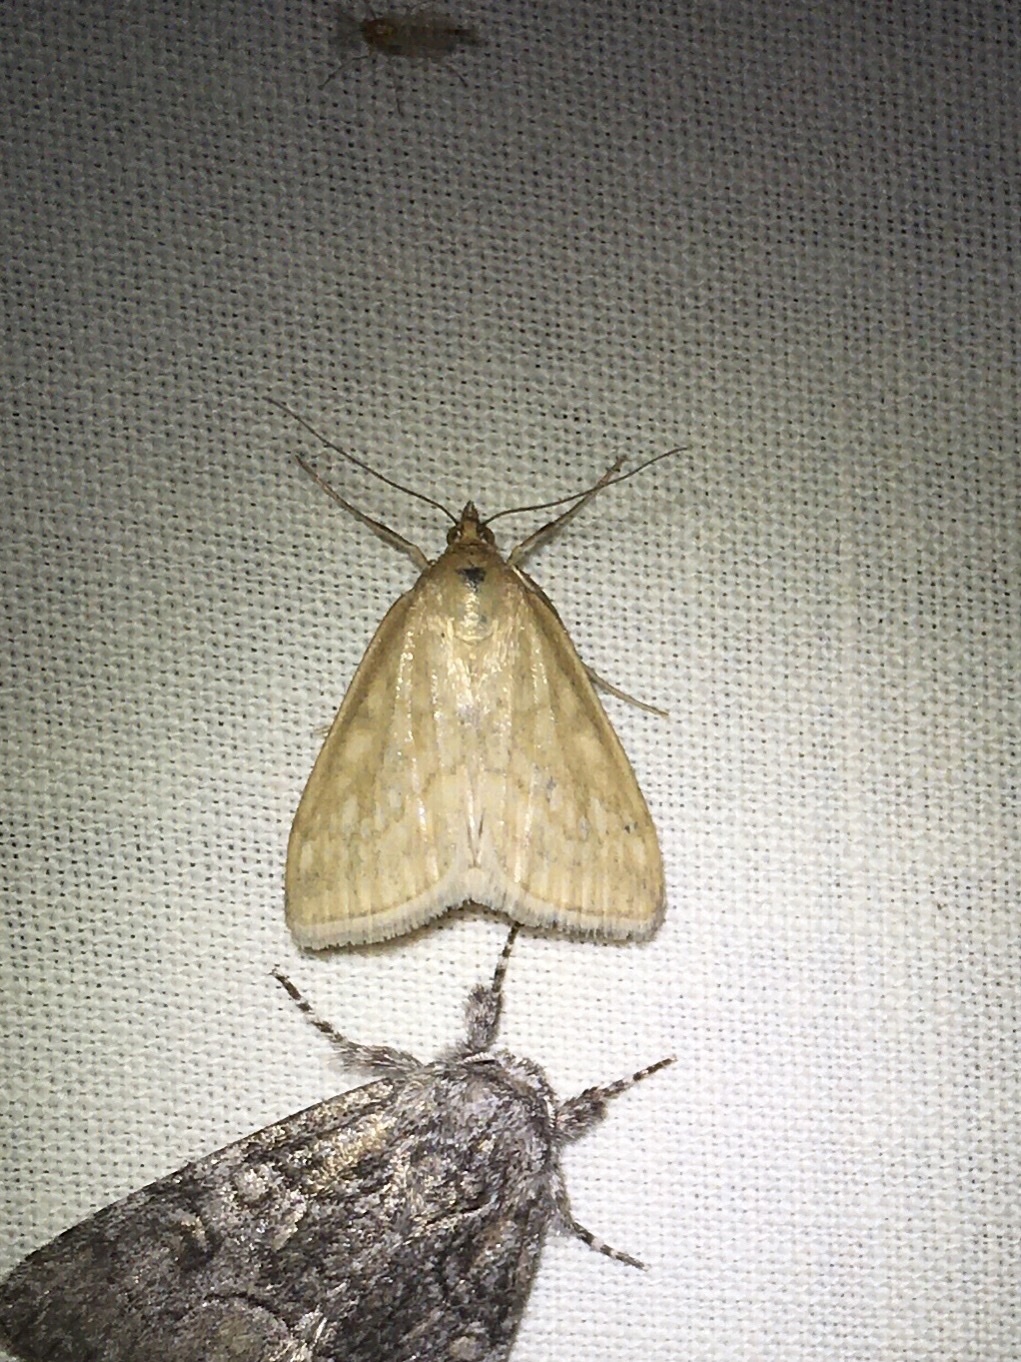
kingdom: Animalia
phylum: Arthropoda
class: Insecta
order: Lepidoptera
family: Crambidae
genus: Sitochroa
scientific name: Sitochroa chortalis
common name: Dimorphic sitochroa moth
